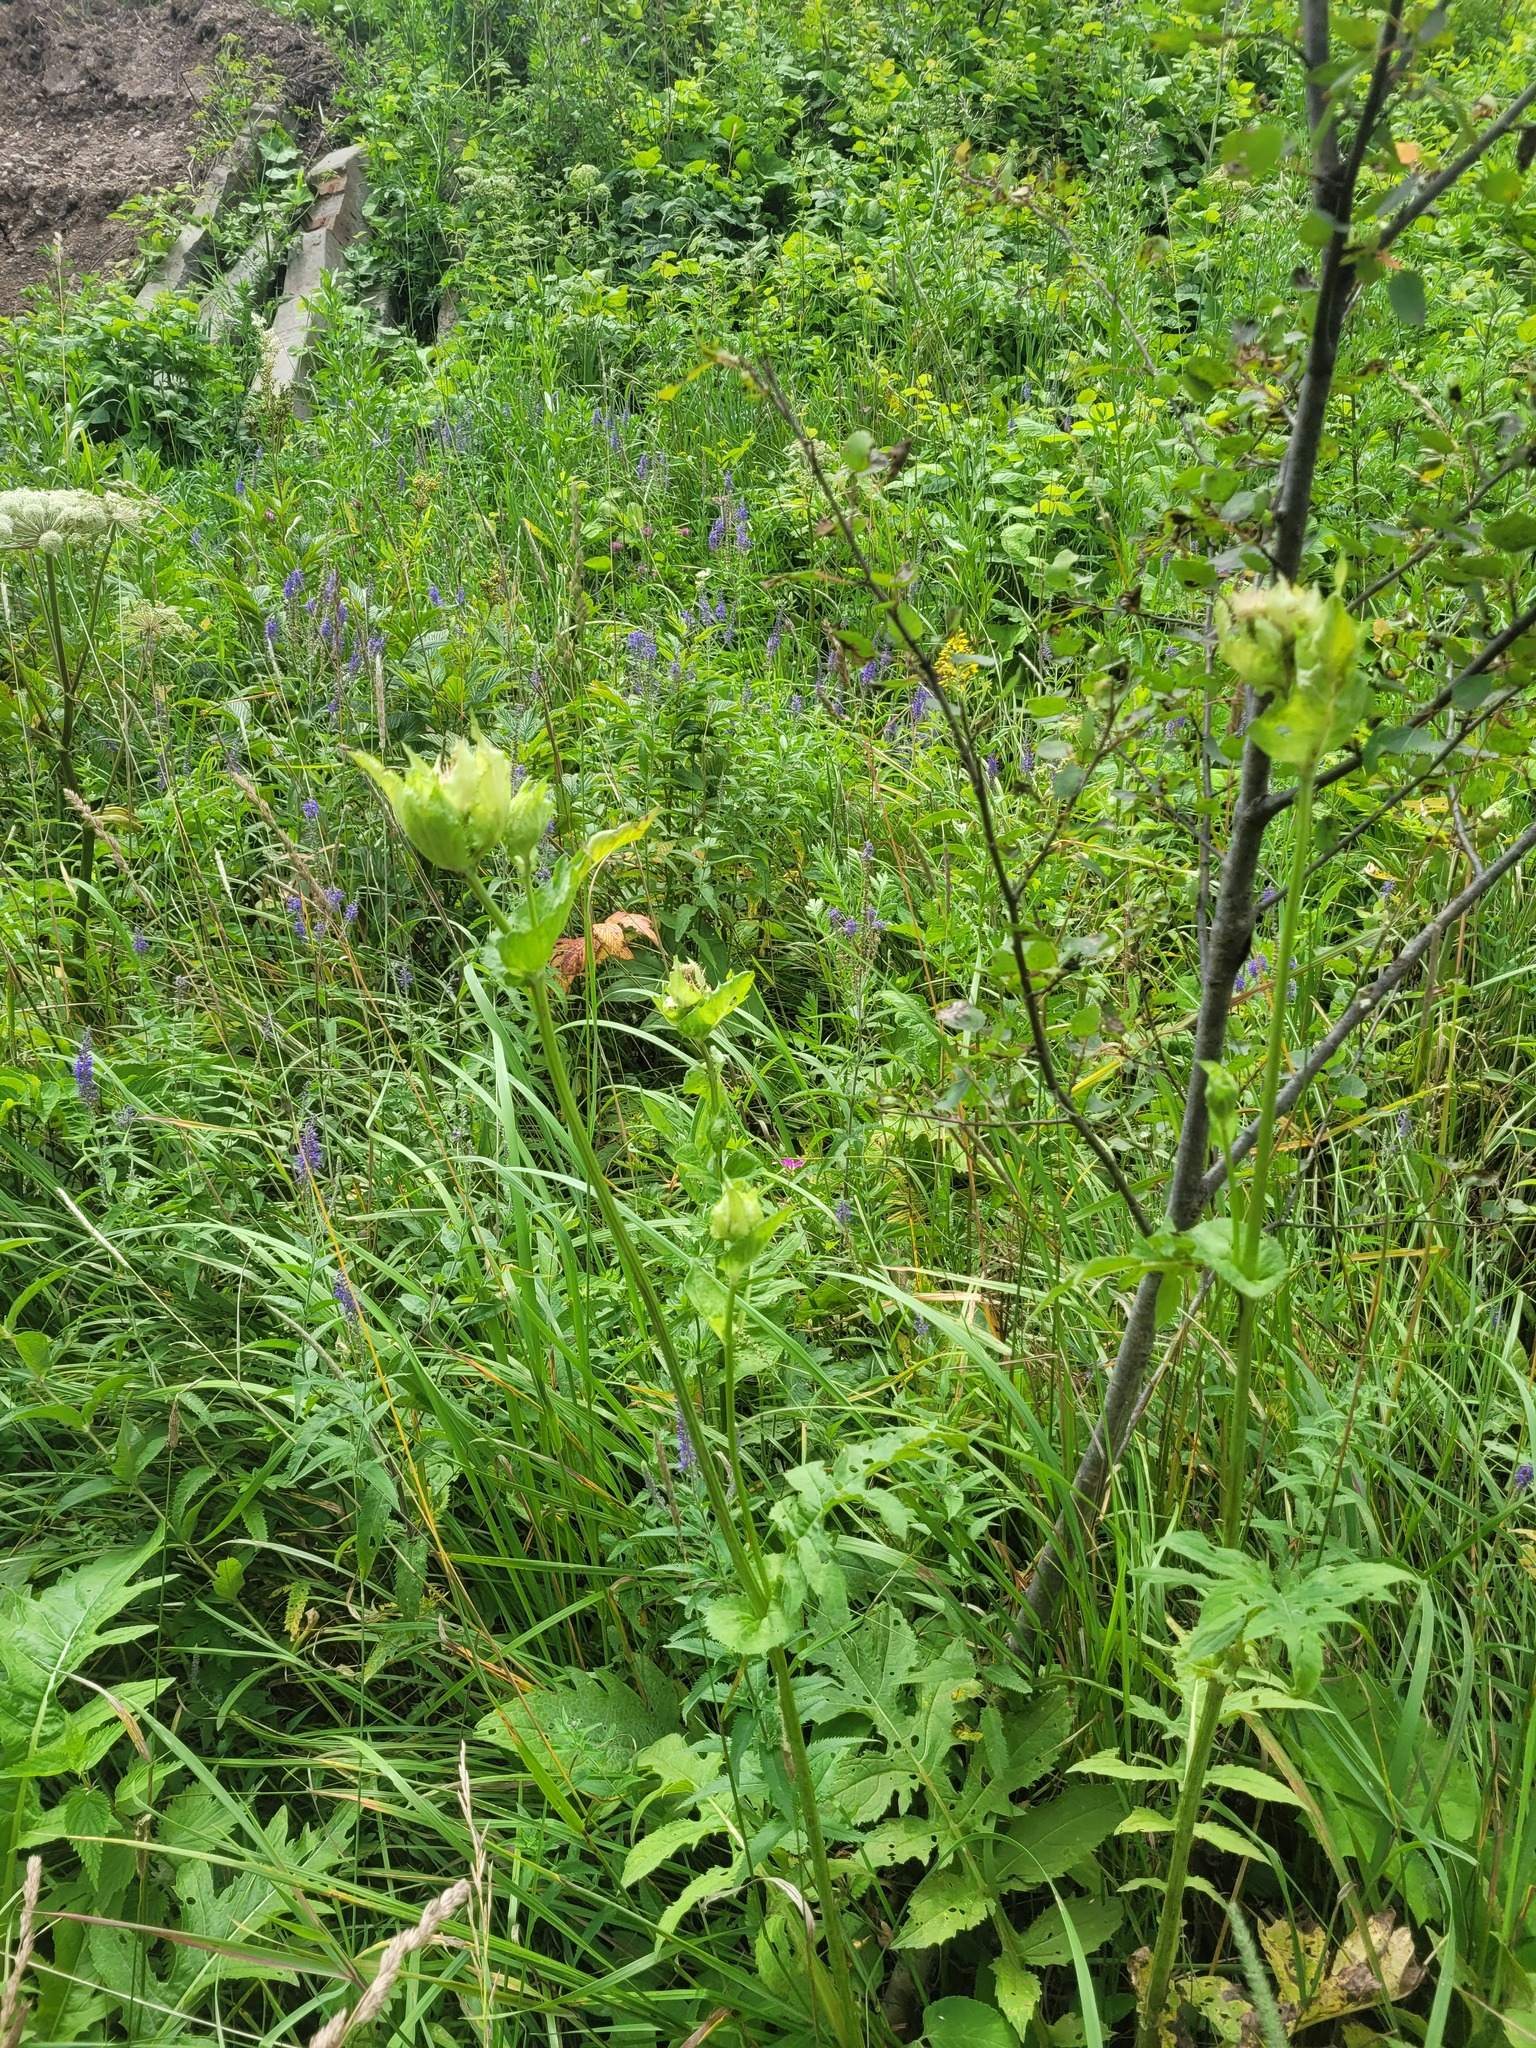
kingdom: Plantae
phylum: Tracheophyta
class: Magnoliopsida
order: Asterales
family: Asteraceae
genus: Cirsium
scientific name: Cirsium oleraceum
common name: Cabbage thistle
